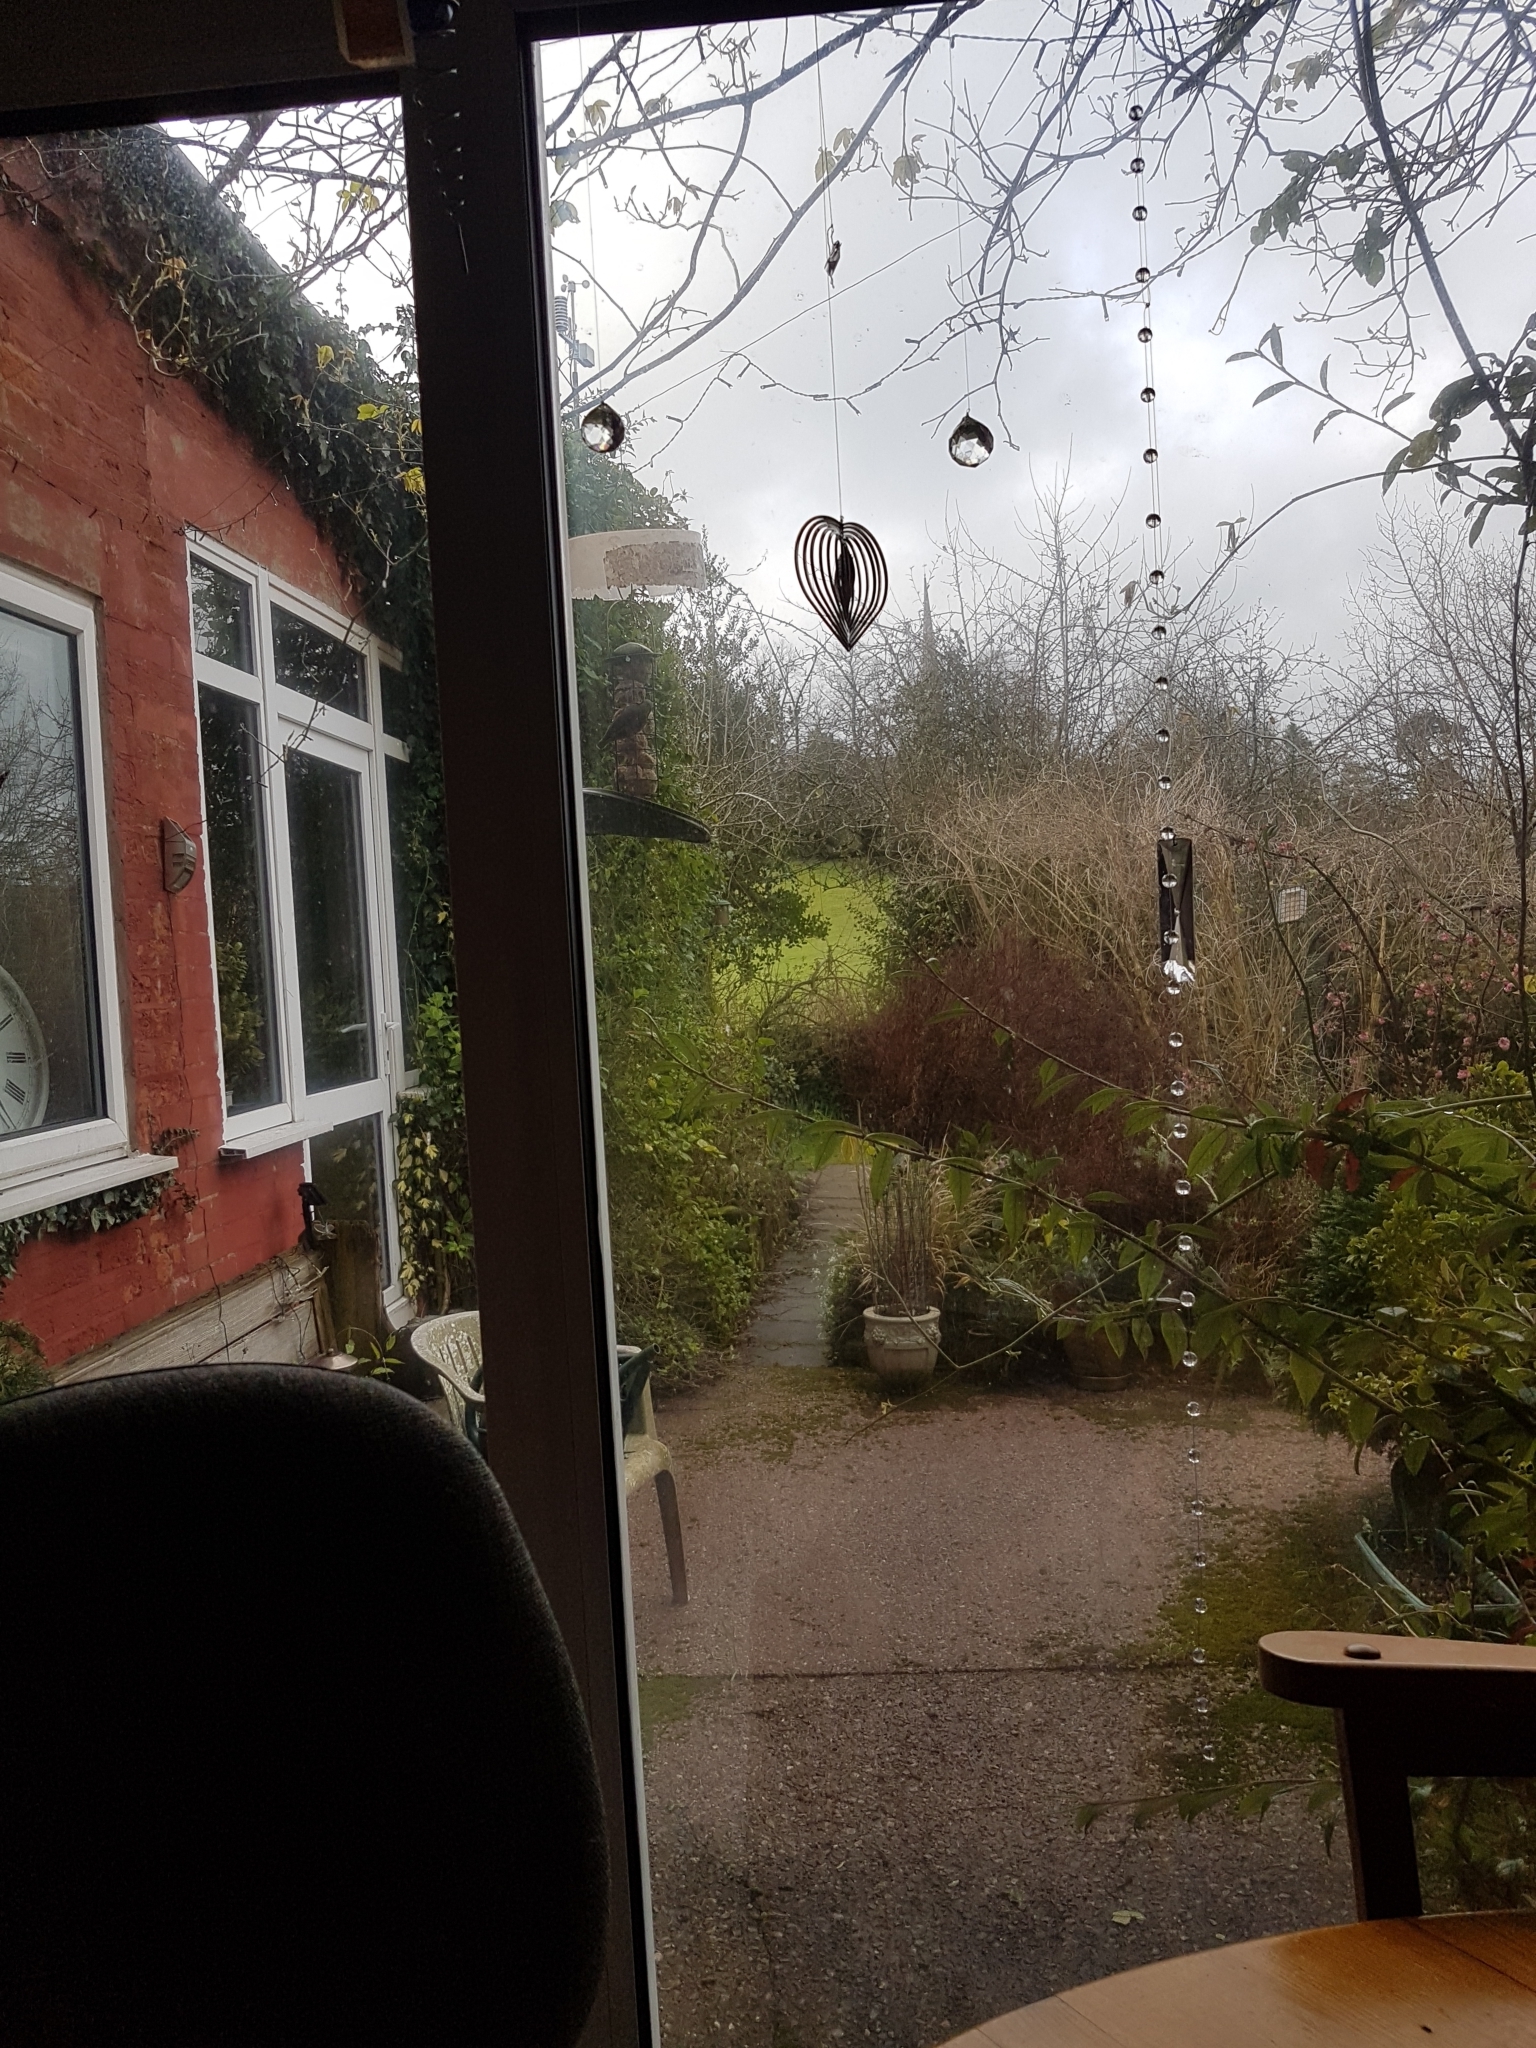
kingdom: Animalia
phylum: Chordata
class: Aves
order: Passeriformes
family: Sittidae
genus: Sitta
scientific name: Sitta europaea
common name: Eurasian nuthatch
